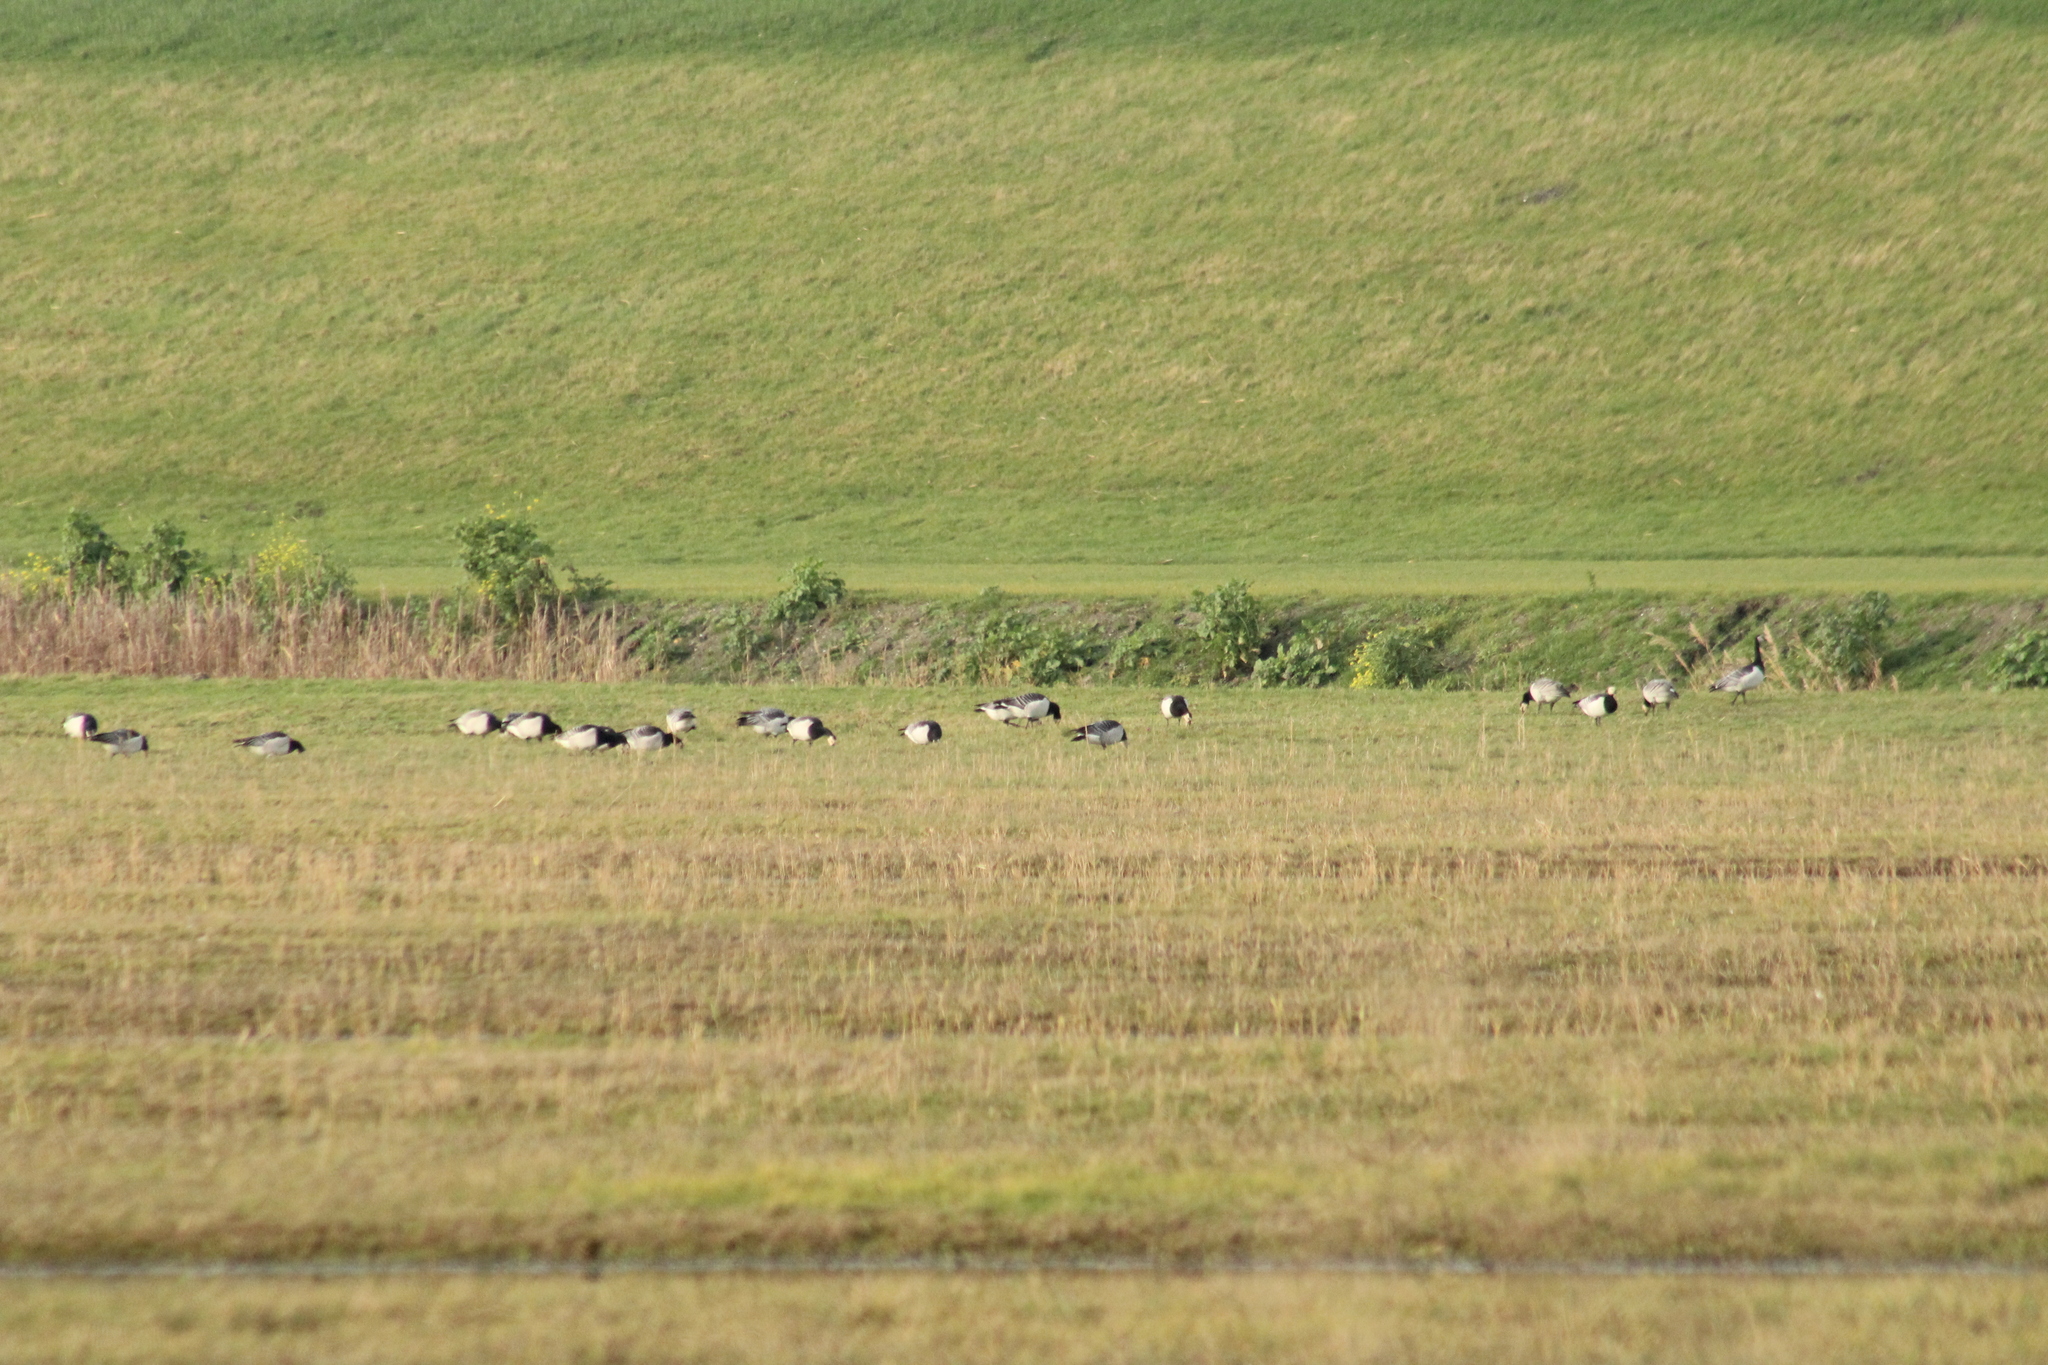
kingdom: Animalia
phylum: Chordata
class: Aves
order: Anseriformes
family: Anatidae
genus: Branta
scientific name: Branta leucopsis
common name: Barnacle goose
